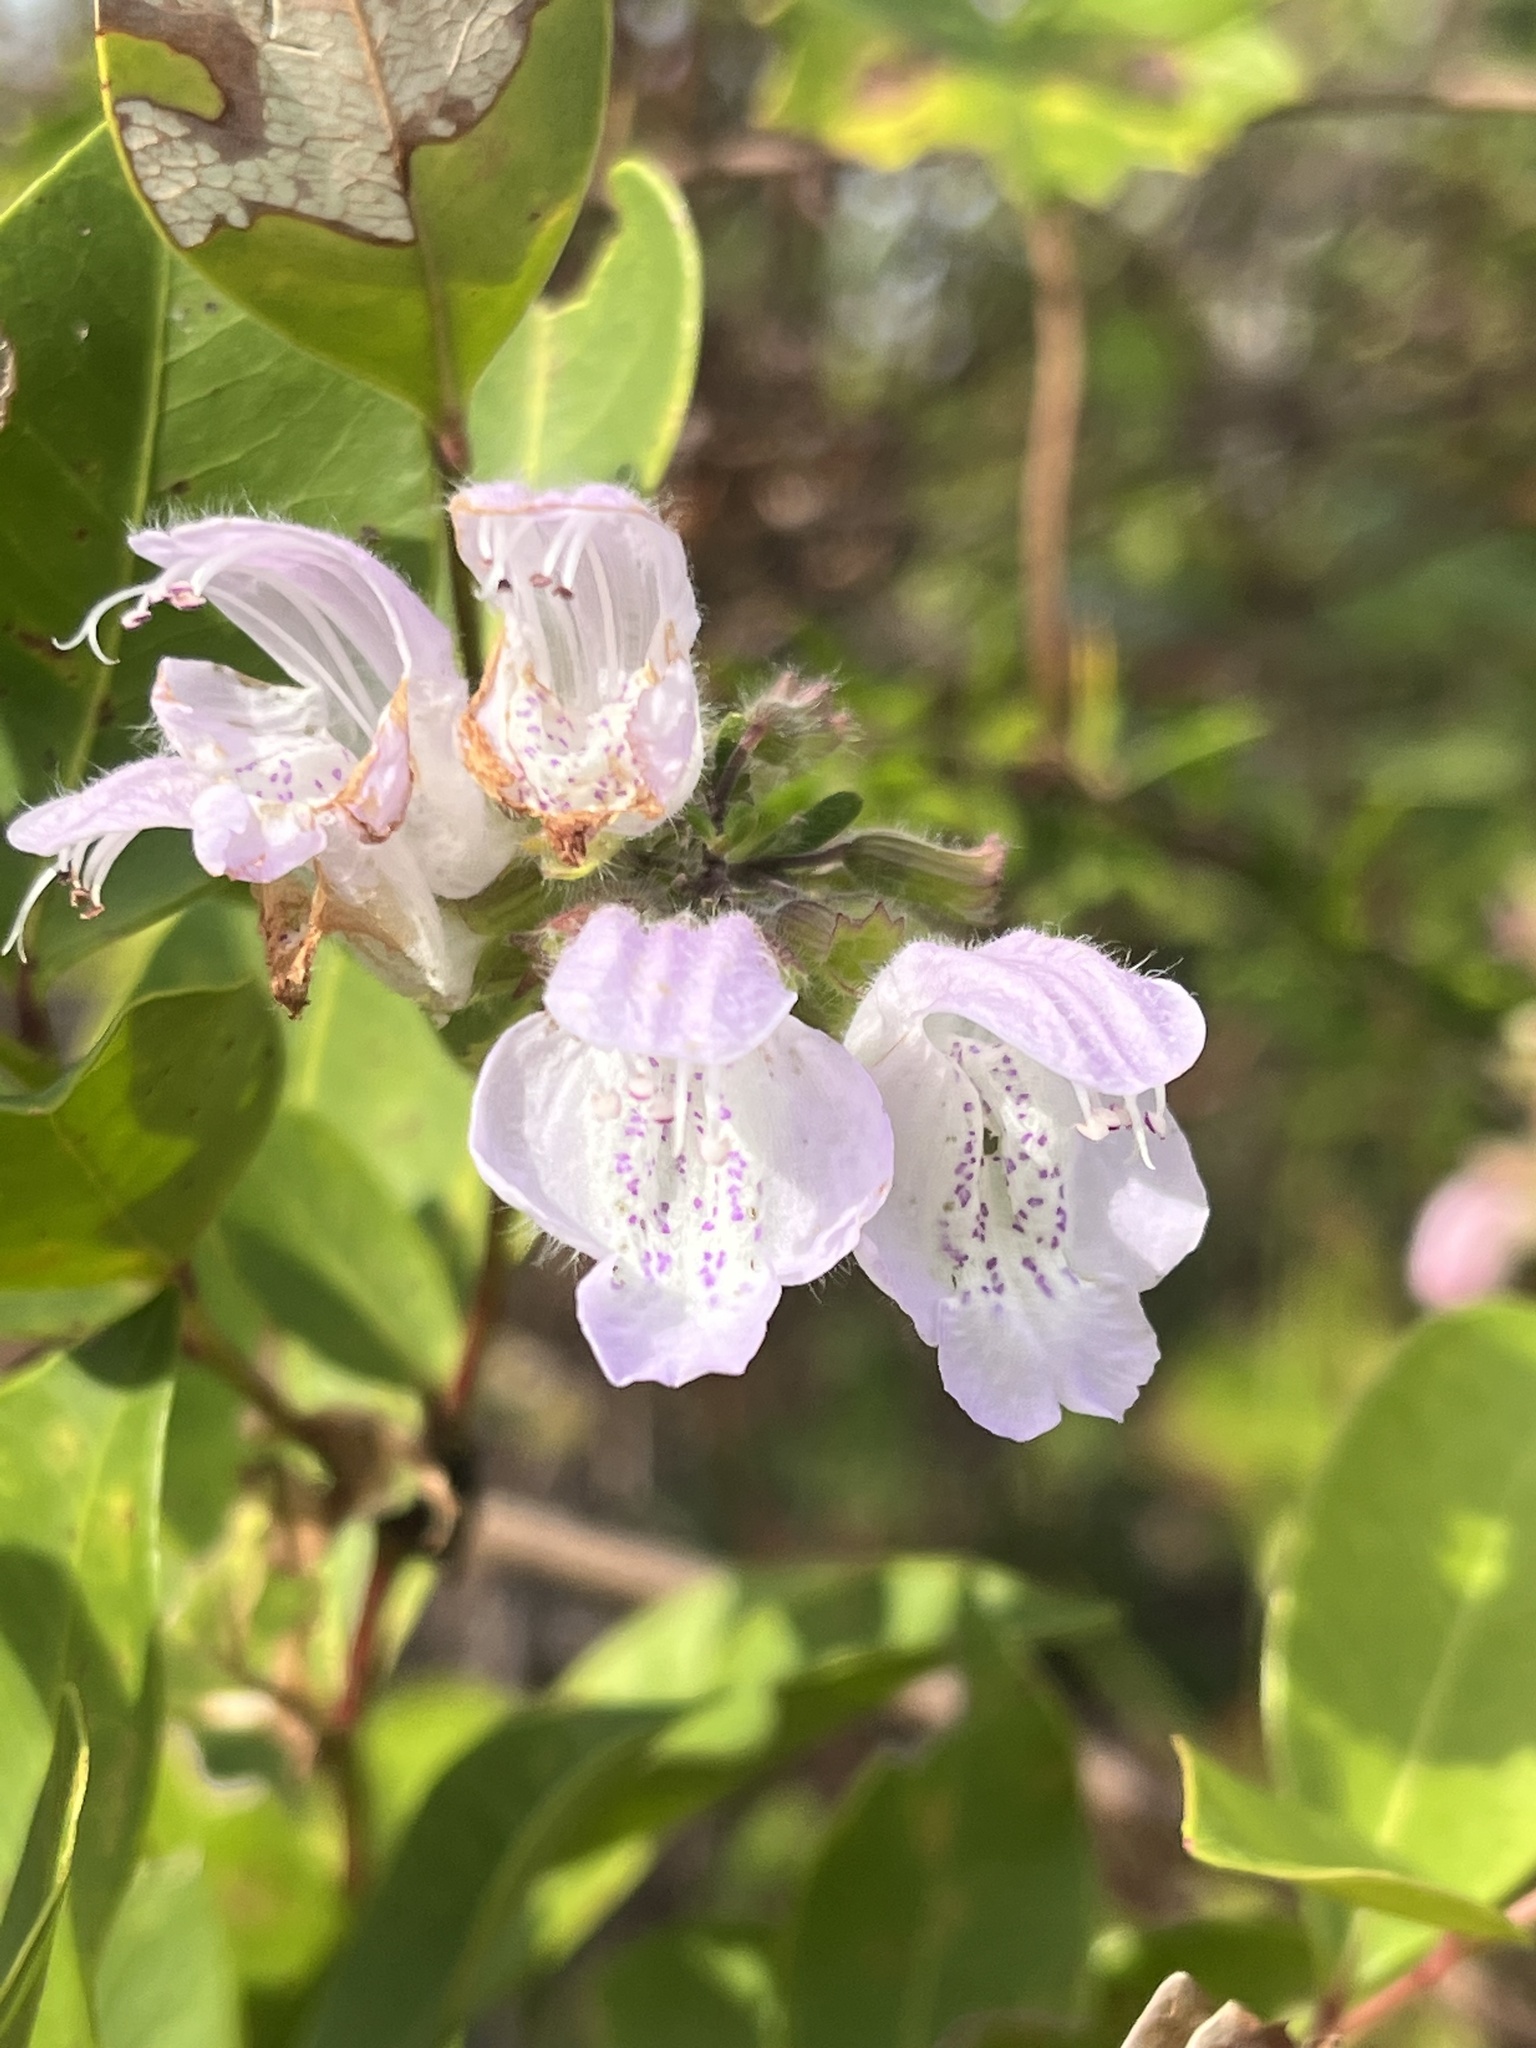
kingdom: Plantae
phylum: Tracheophyta
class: Magnoliopsida
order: Lamiales
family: Lamiaceae
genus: Conradina
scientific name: Conradina grandiflora
